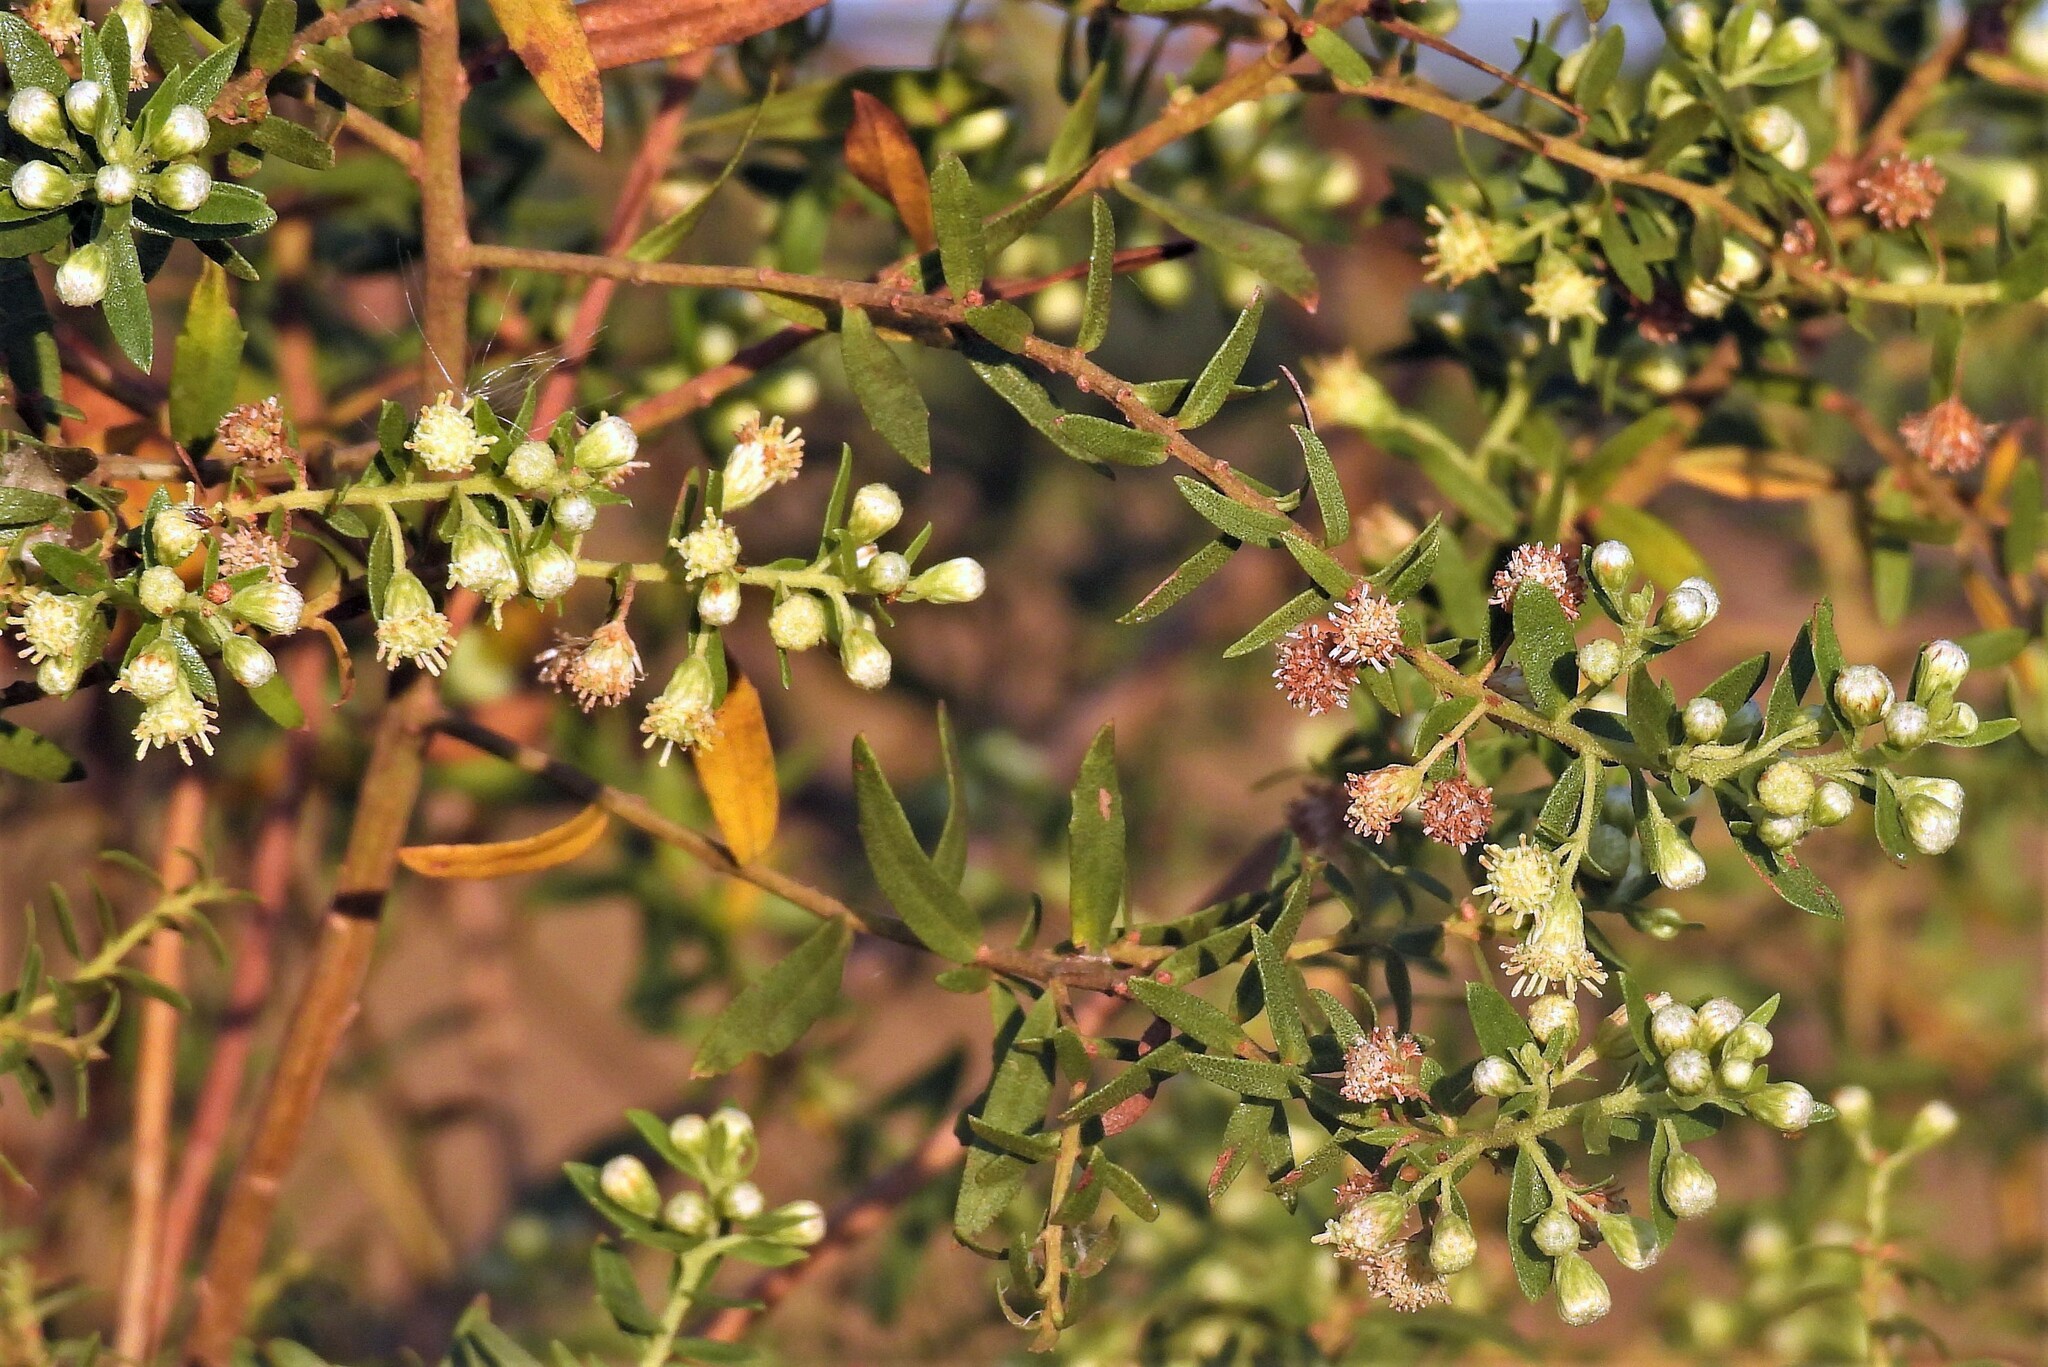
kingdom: Plantae
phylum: Tracheophyta
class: Magnoliopsida
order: Asterales
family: Asteraceae
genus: Baccharis
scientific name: Baccharis dracunculifolia
